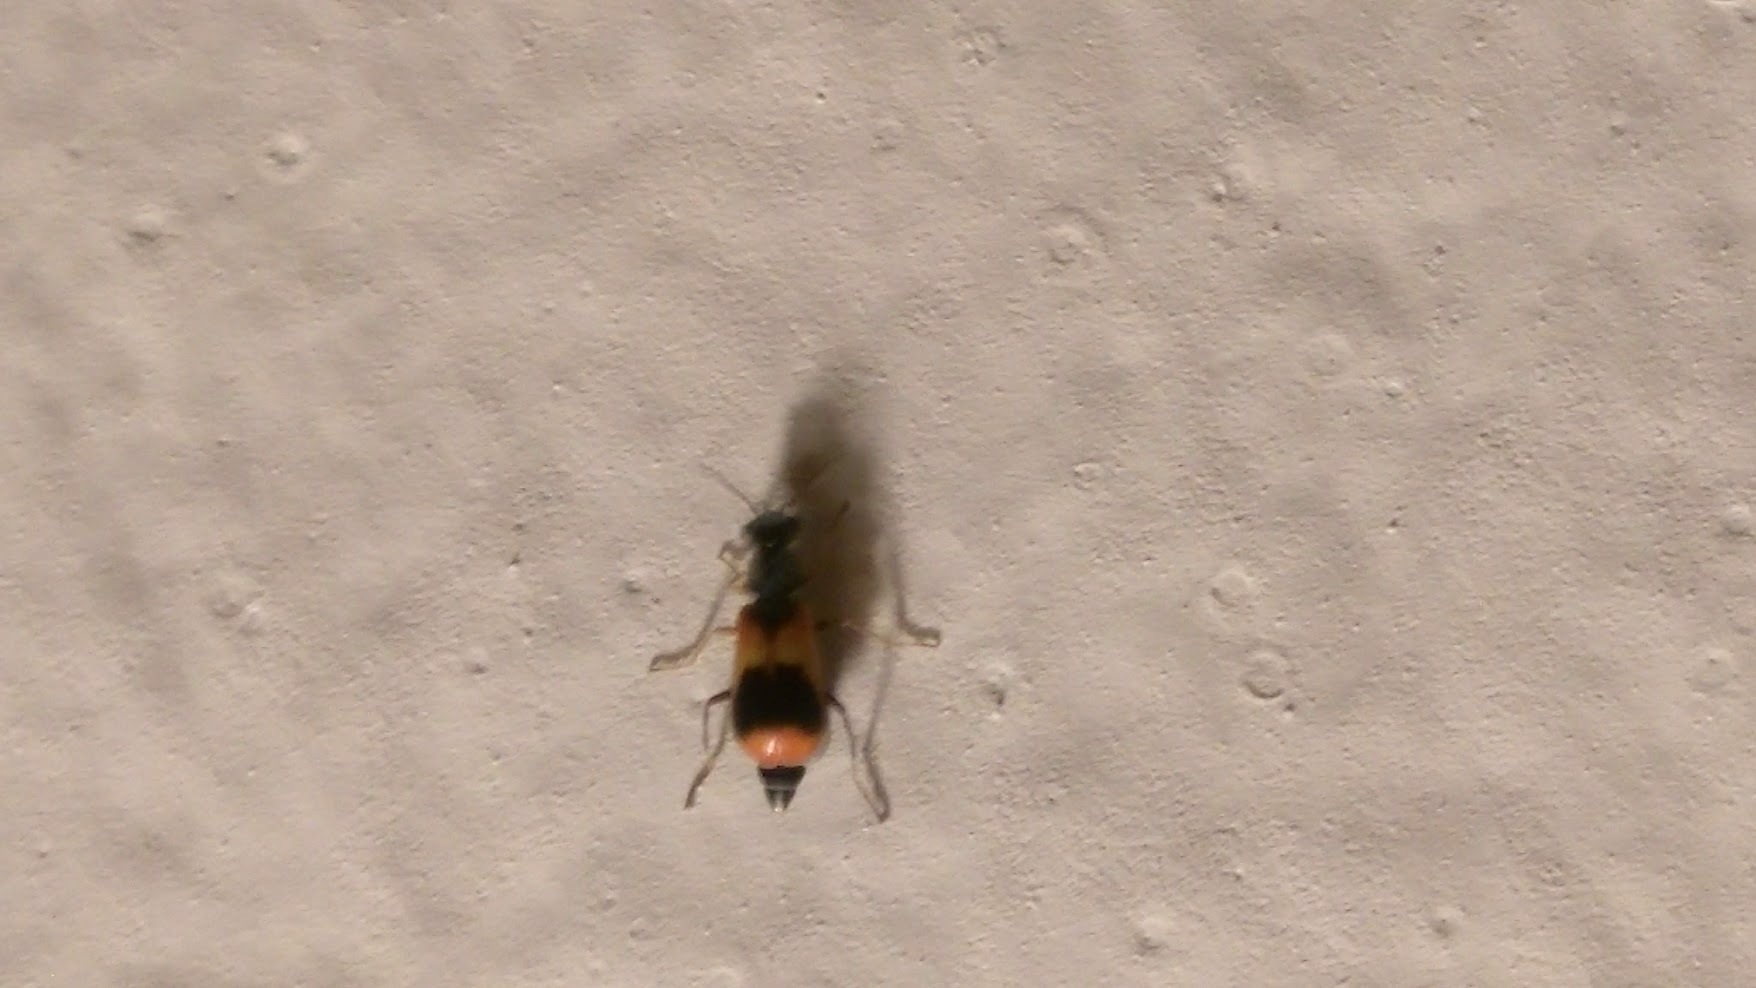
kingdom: Animalia
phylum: Arthropoda
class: Insecta
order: Coleoptera
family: Melyridae
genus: Anthocomus
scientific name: Anthocomus equestris
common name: Black-banded soft-winged flower beetle
